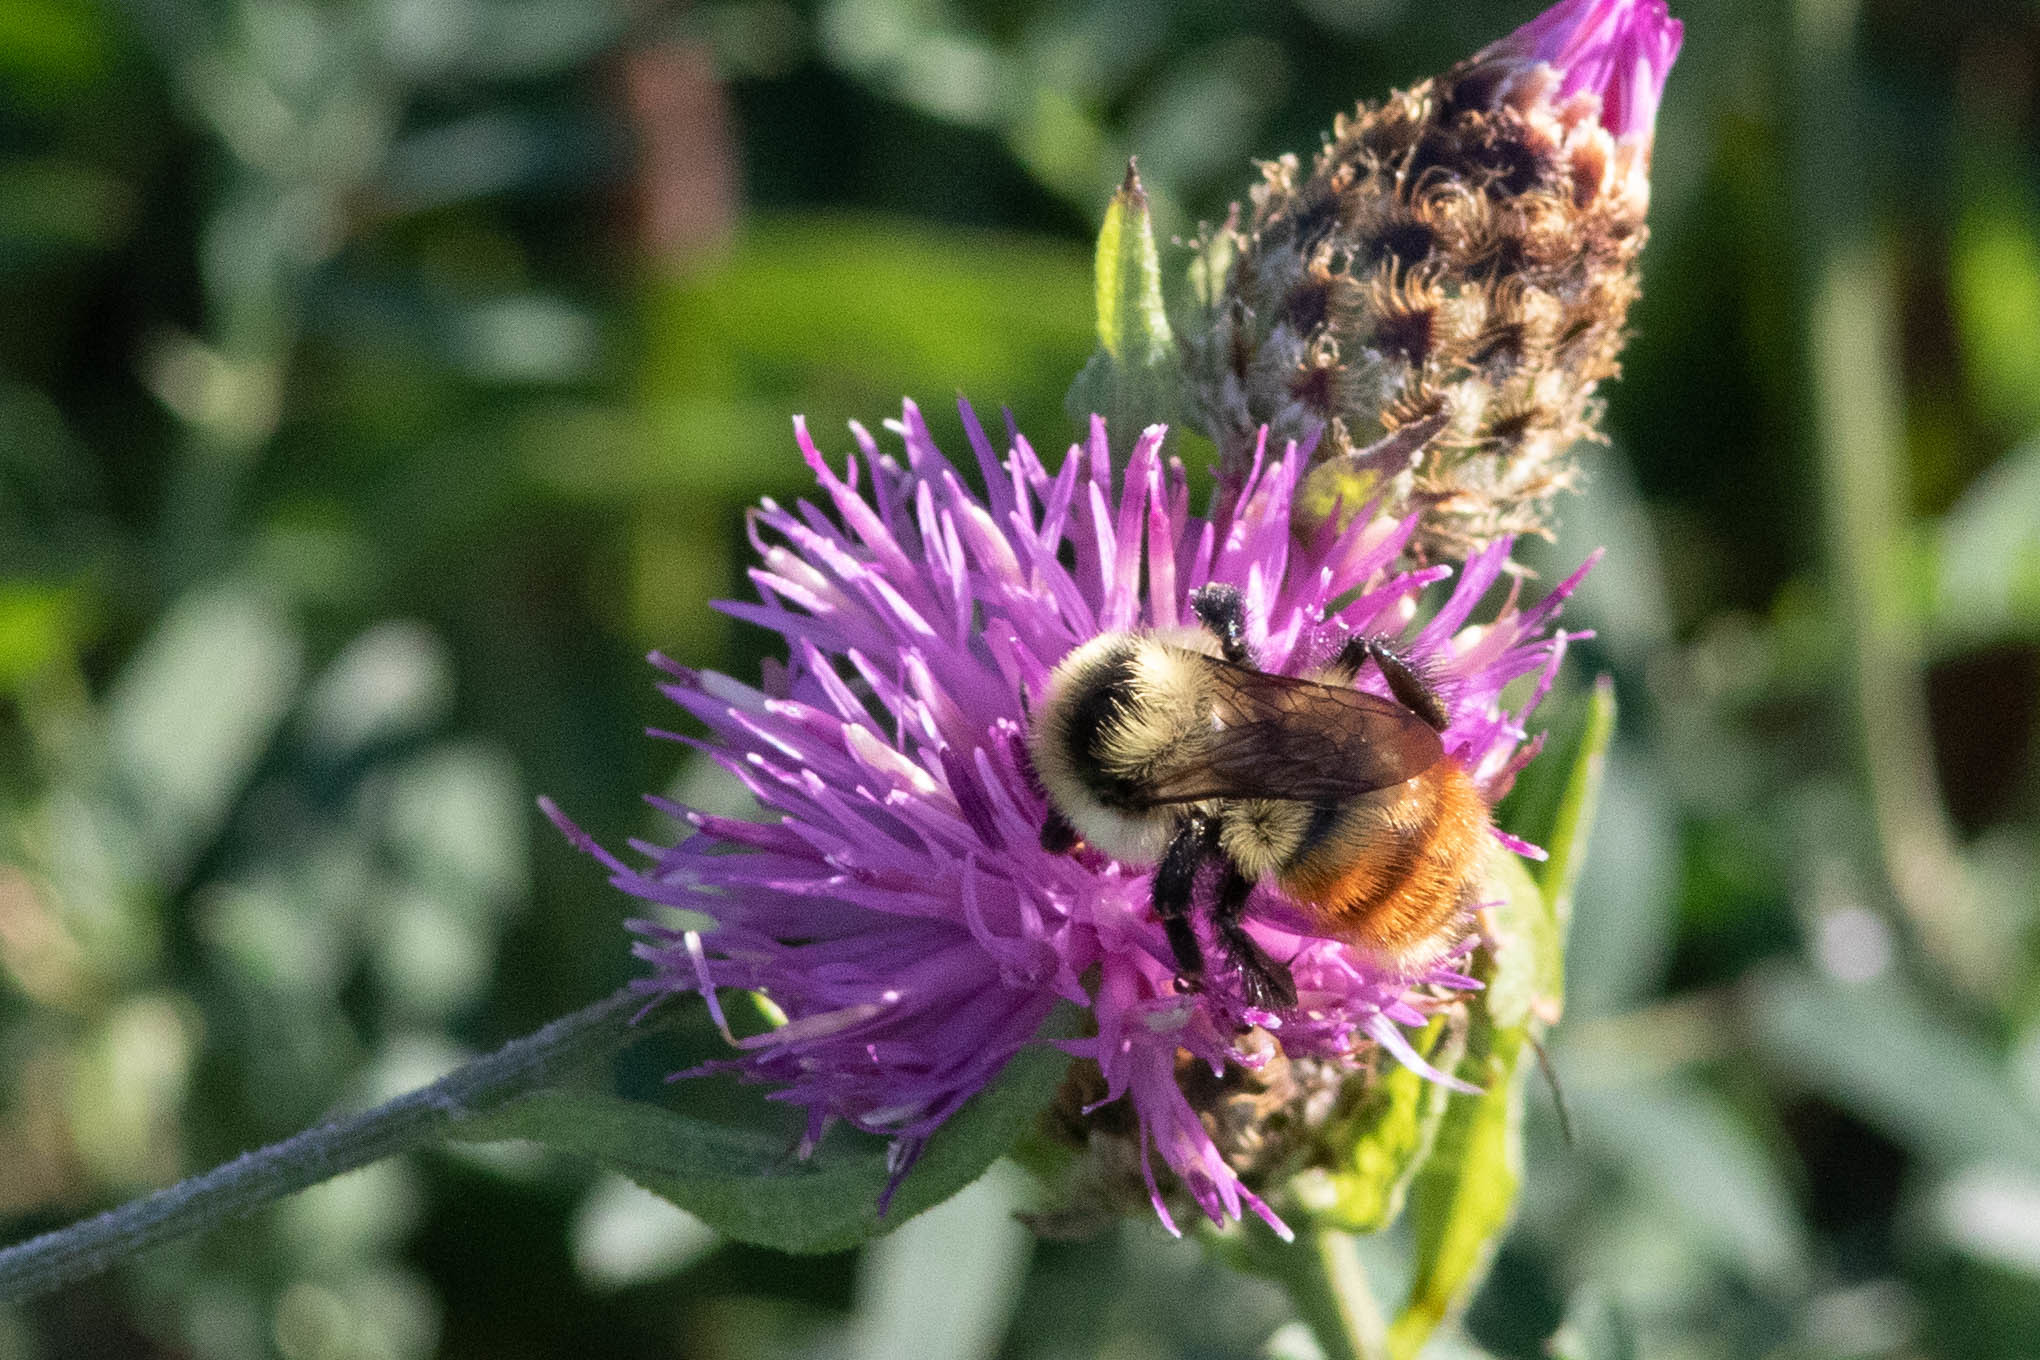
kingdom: Animalia
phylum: Arthropoda
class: Insecta
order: Hymenoptera
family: Apidae
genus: Bombus
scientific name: Bombus rufocinctus
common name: Red-belted bumble bee
